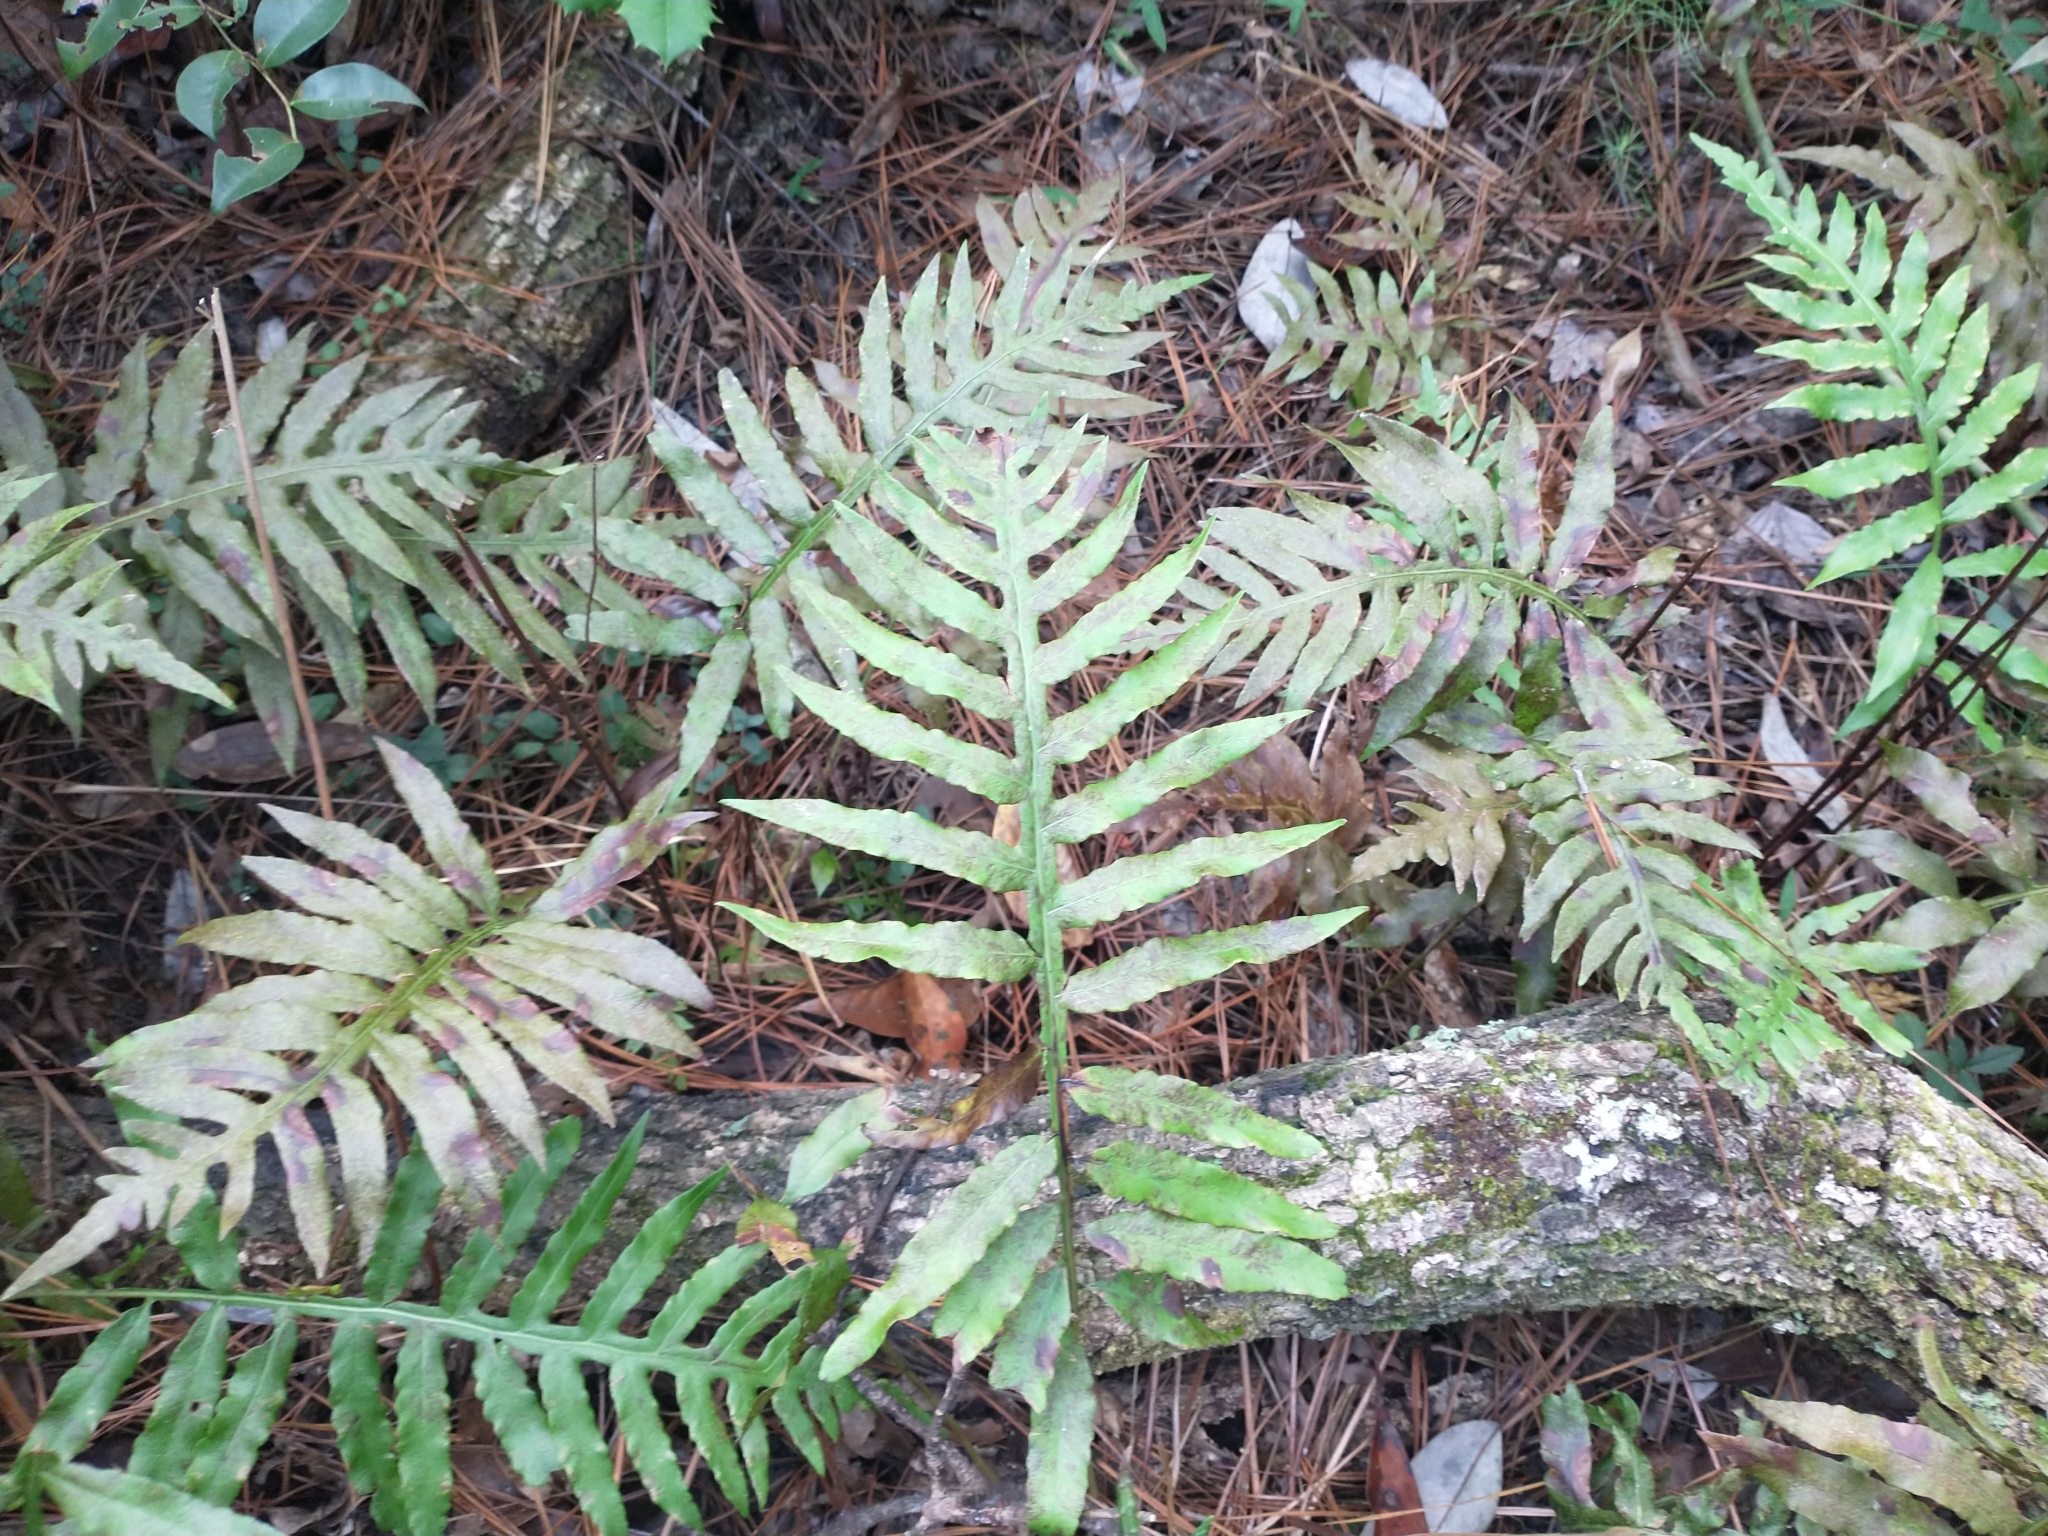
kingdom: Plantae
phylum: Tracheophyta
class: Polypodiopsida
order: Polypodiales
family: Blechnaceae
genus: Lorinseria
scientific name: Lorinseria areolata
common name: Dwarf chain fern
